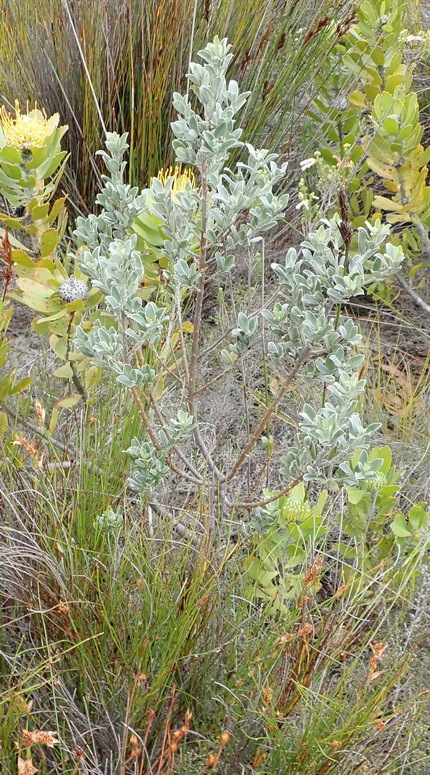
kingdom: Plantae
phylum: Tracheophyta
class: Magnoliopsida
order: Fabales
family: Fabaceae
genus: Podalyria
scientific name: Podalyria myrtillifolia
